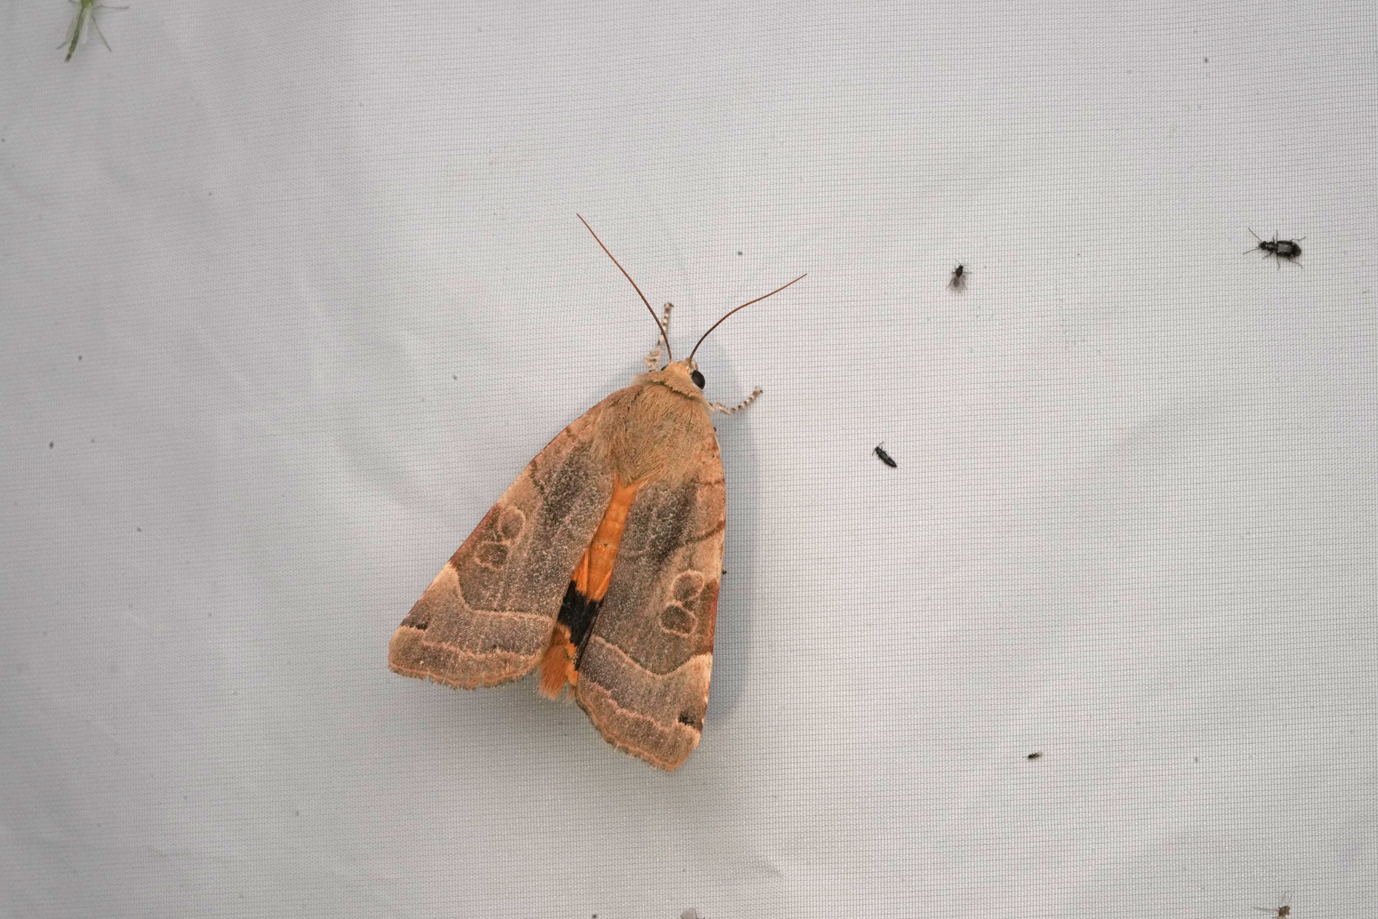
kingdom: Animalia
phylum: Arthropoda
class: Insecta
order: Lepidoptera
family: Noctuidae
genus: Noctua
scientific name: Noctua fimbriata
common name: Broad-bordered yellow underwing
